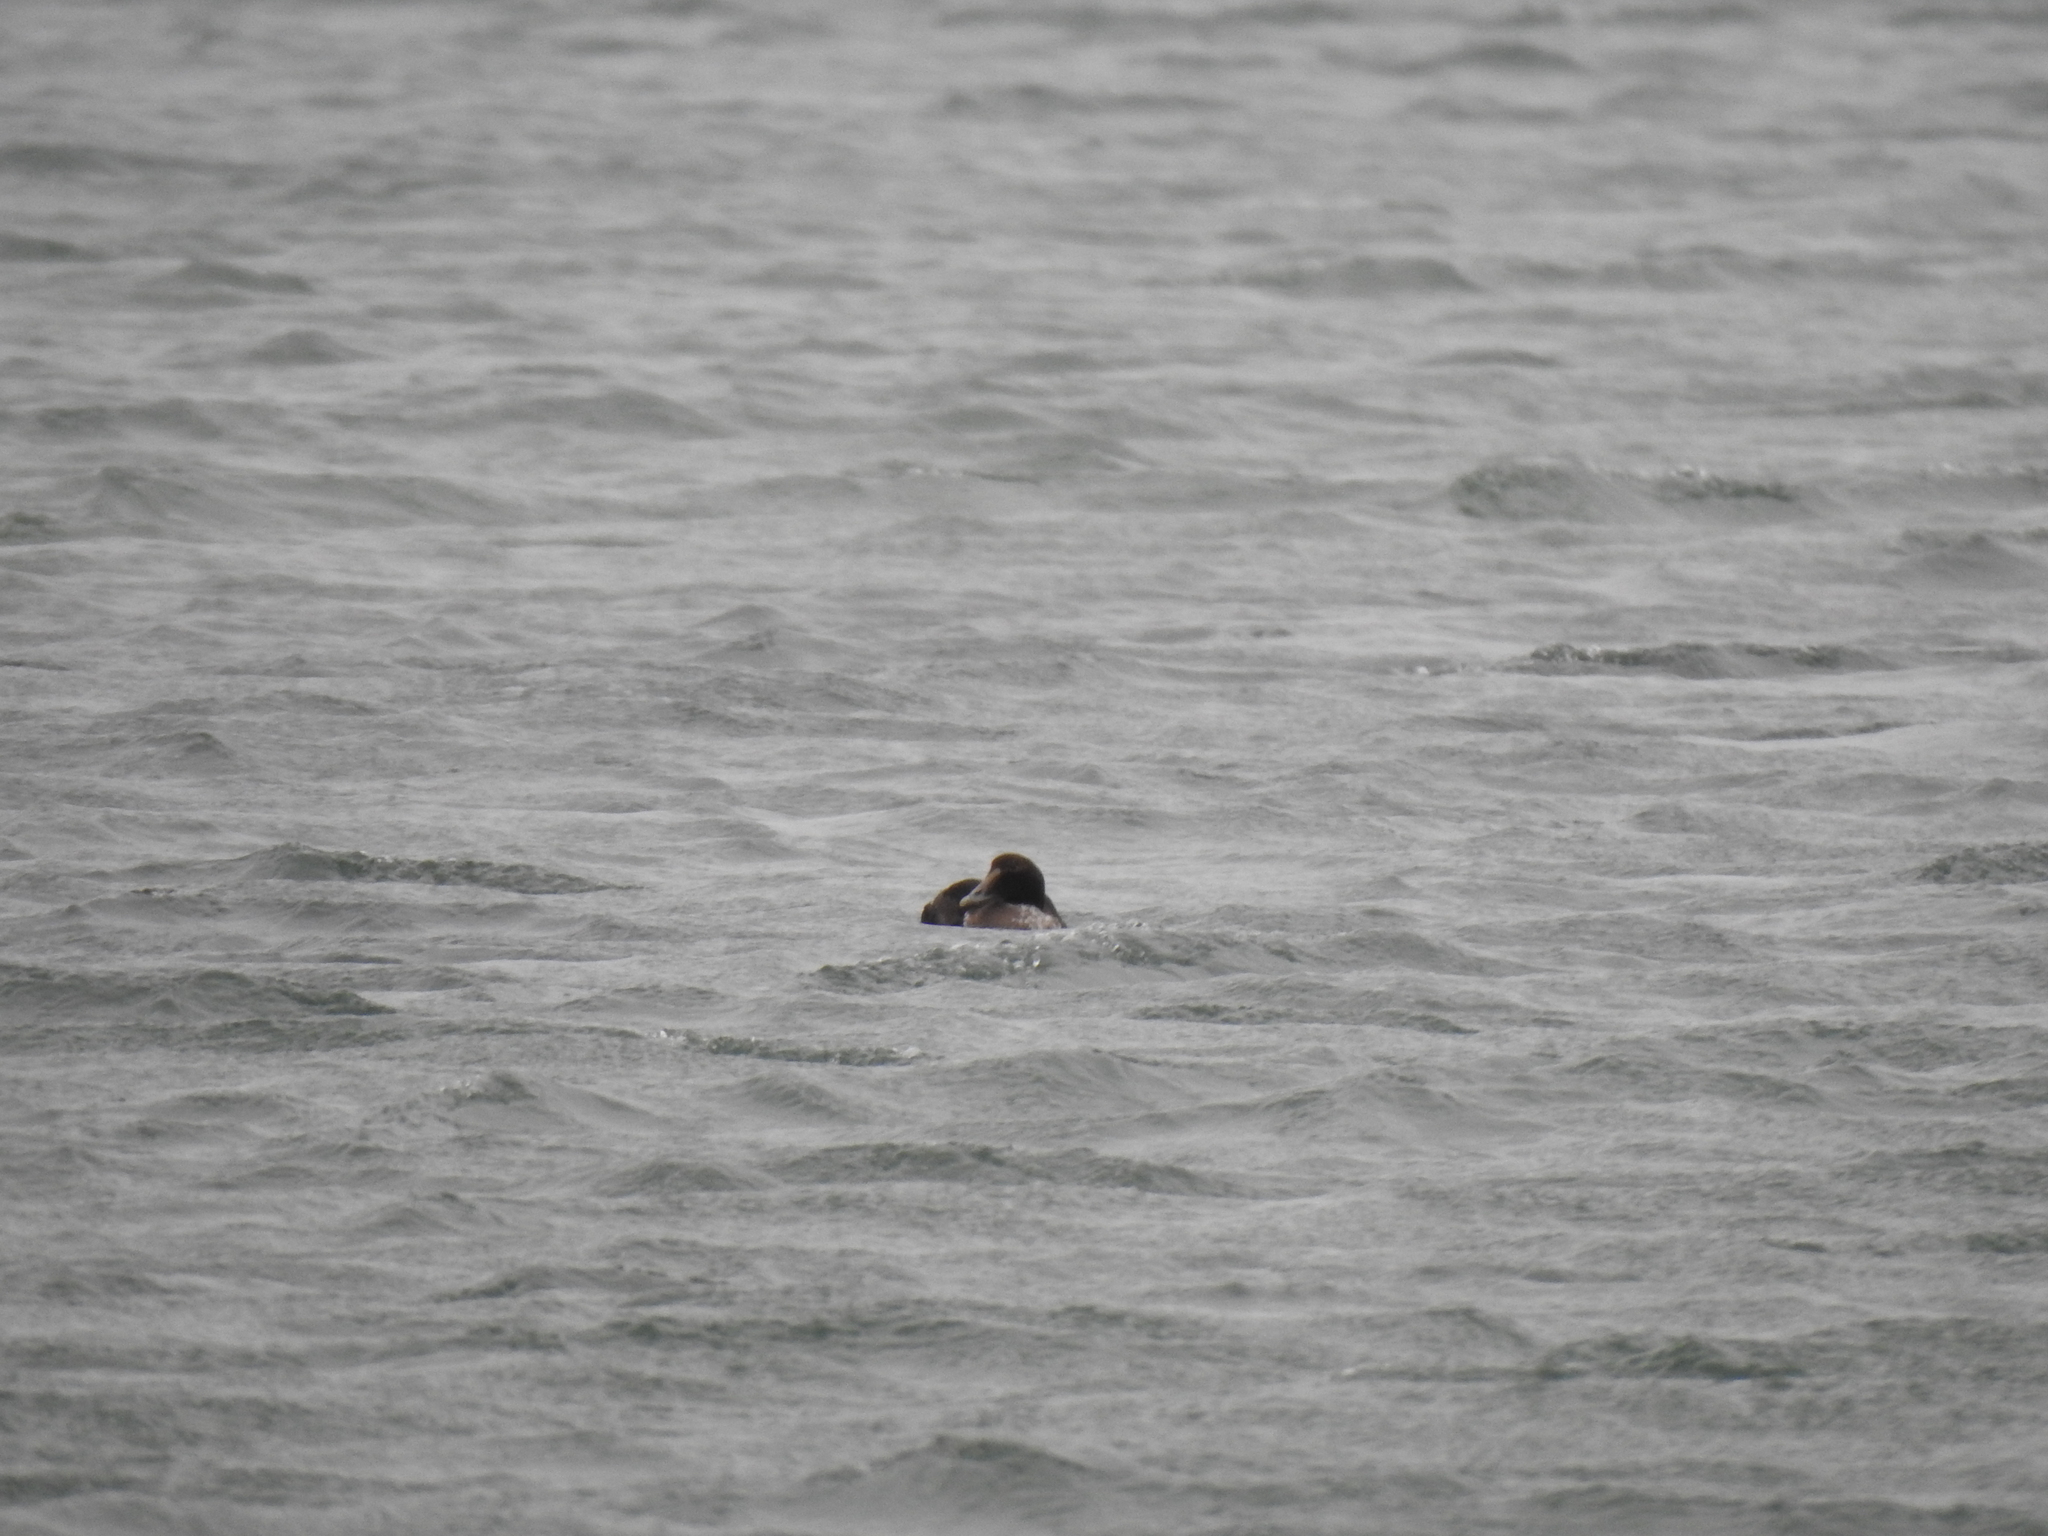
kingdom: Animalia
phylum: Chordata
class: Aves
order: Anseriformes
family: Anatidae
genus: Somateria
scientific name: Somateria mollissima
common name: Common eider
